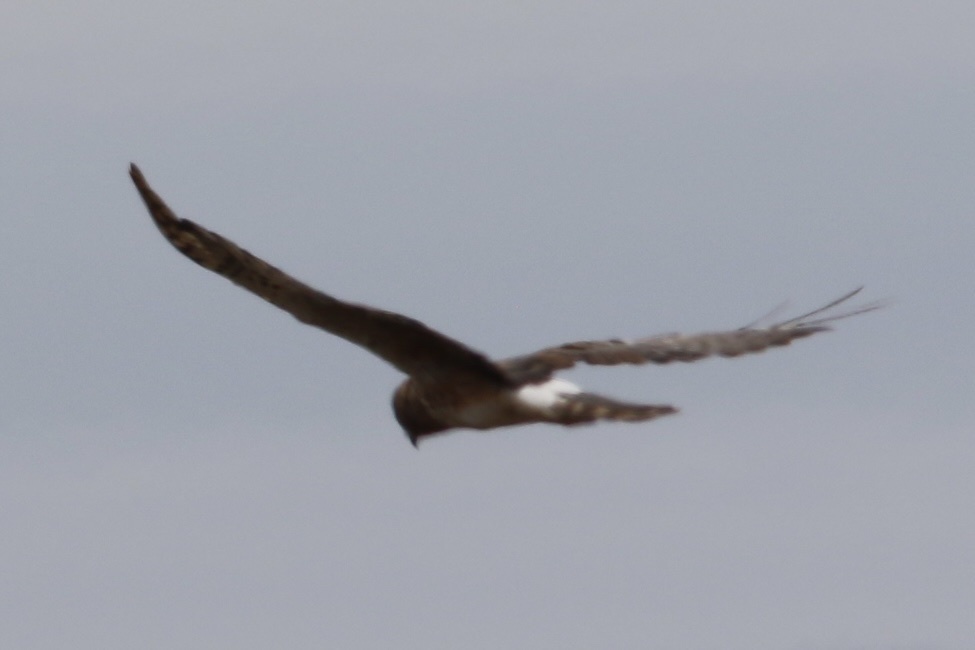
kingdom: Animalia
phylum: Chordata
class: Aves
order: Accipitriformes
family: Accipitridae
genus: Circus
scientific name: Circus cyaneus
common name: Hen harrier
